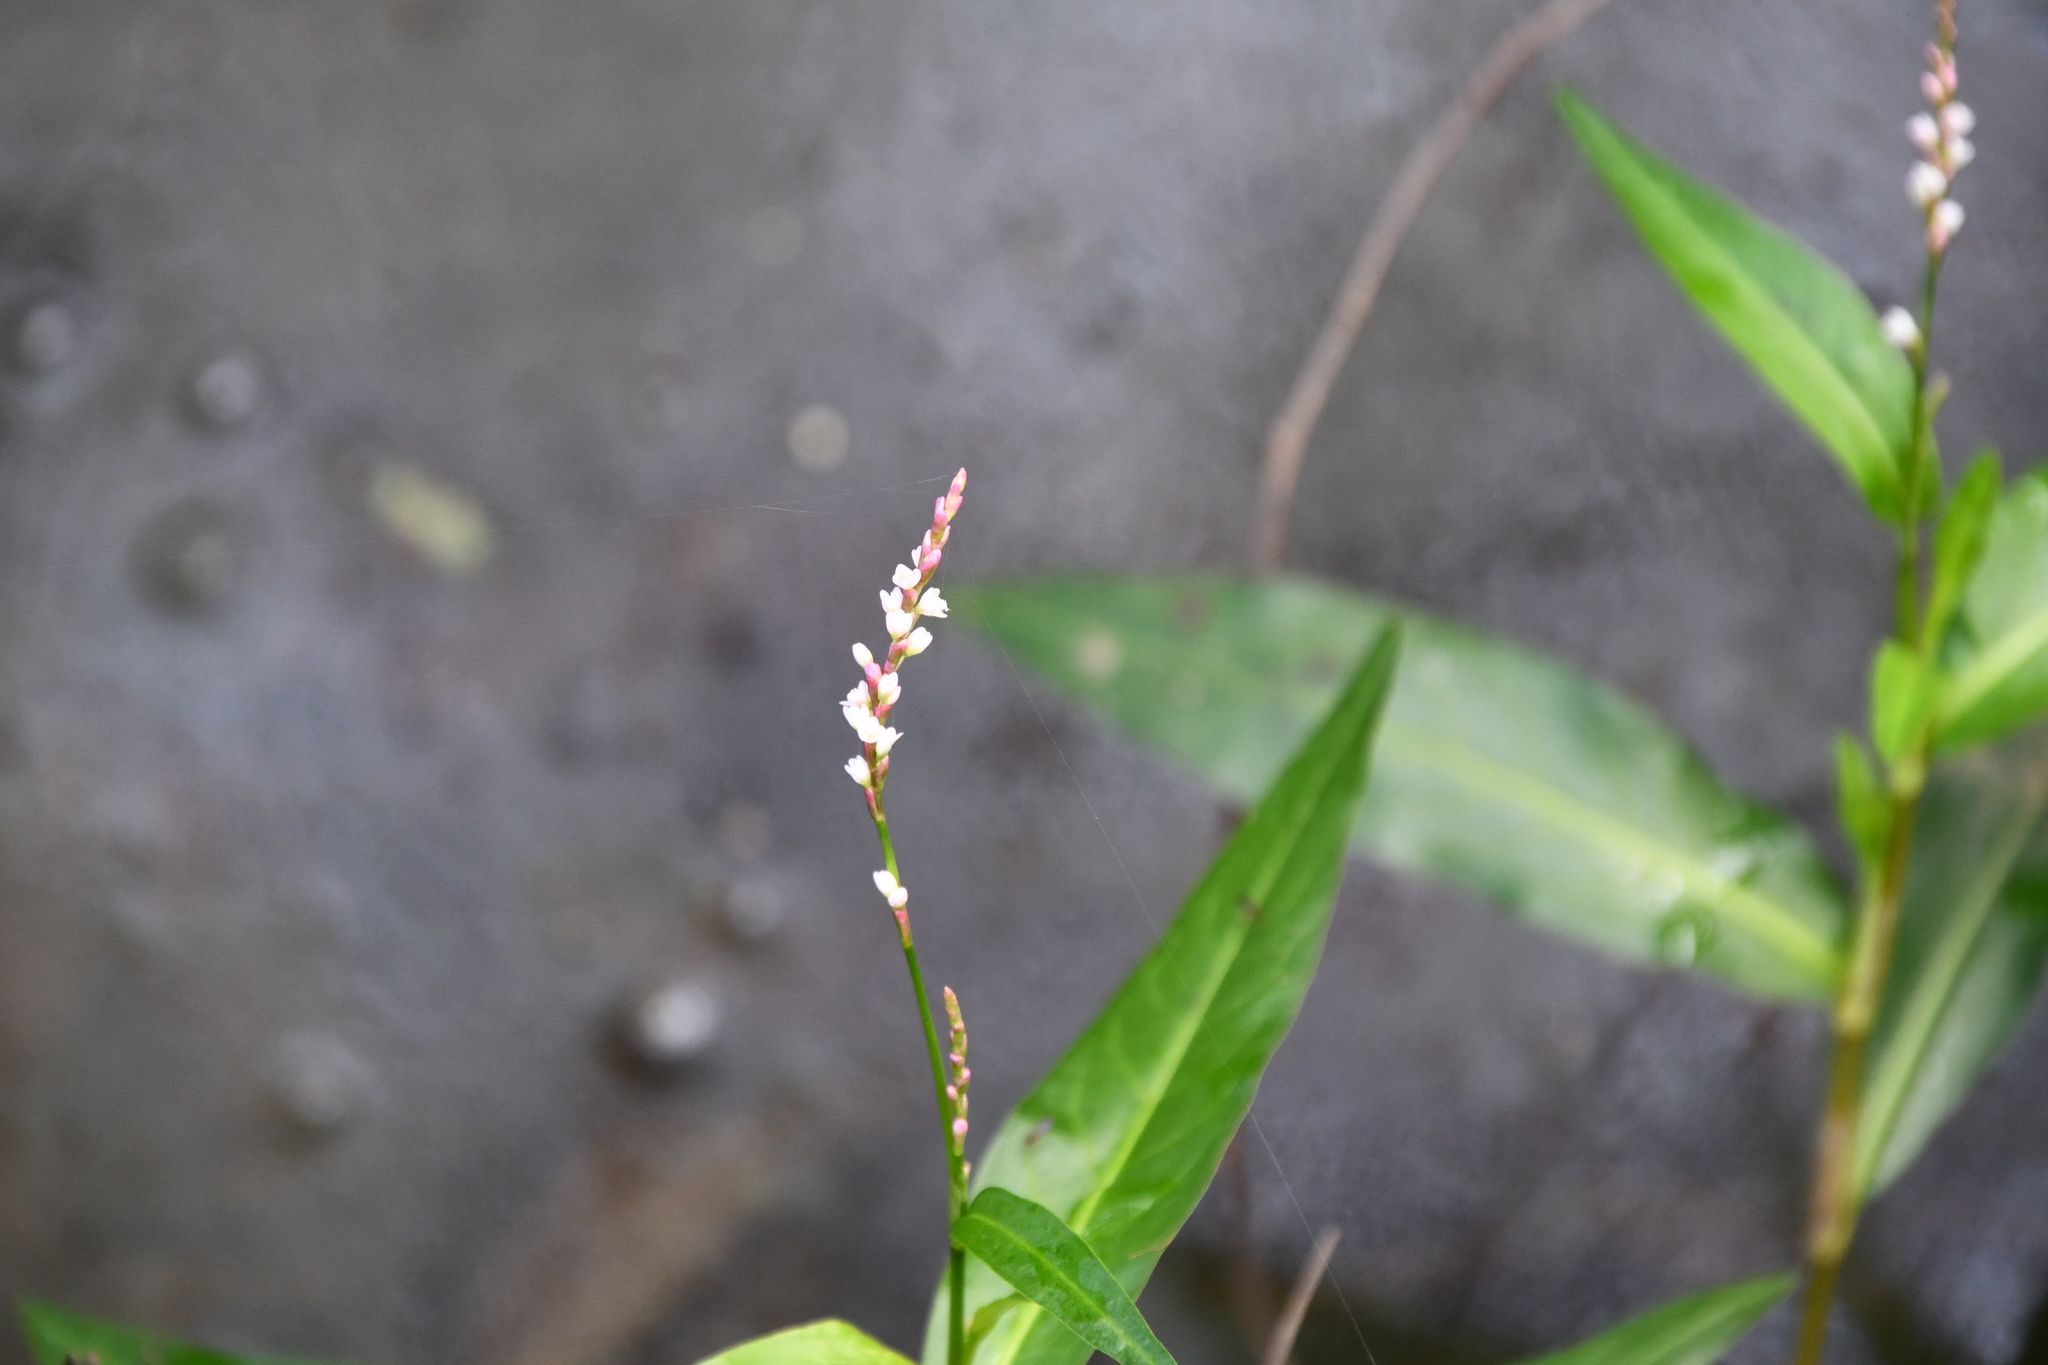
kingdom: Plantae
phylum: Tracheophyta
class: Magnoliopsida
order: Caryophyllales
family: Polygonaceae
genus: Persicaria
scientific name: Persicaria decipiens
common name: Willow-weed
